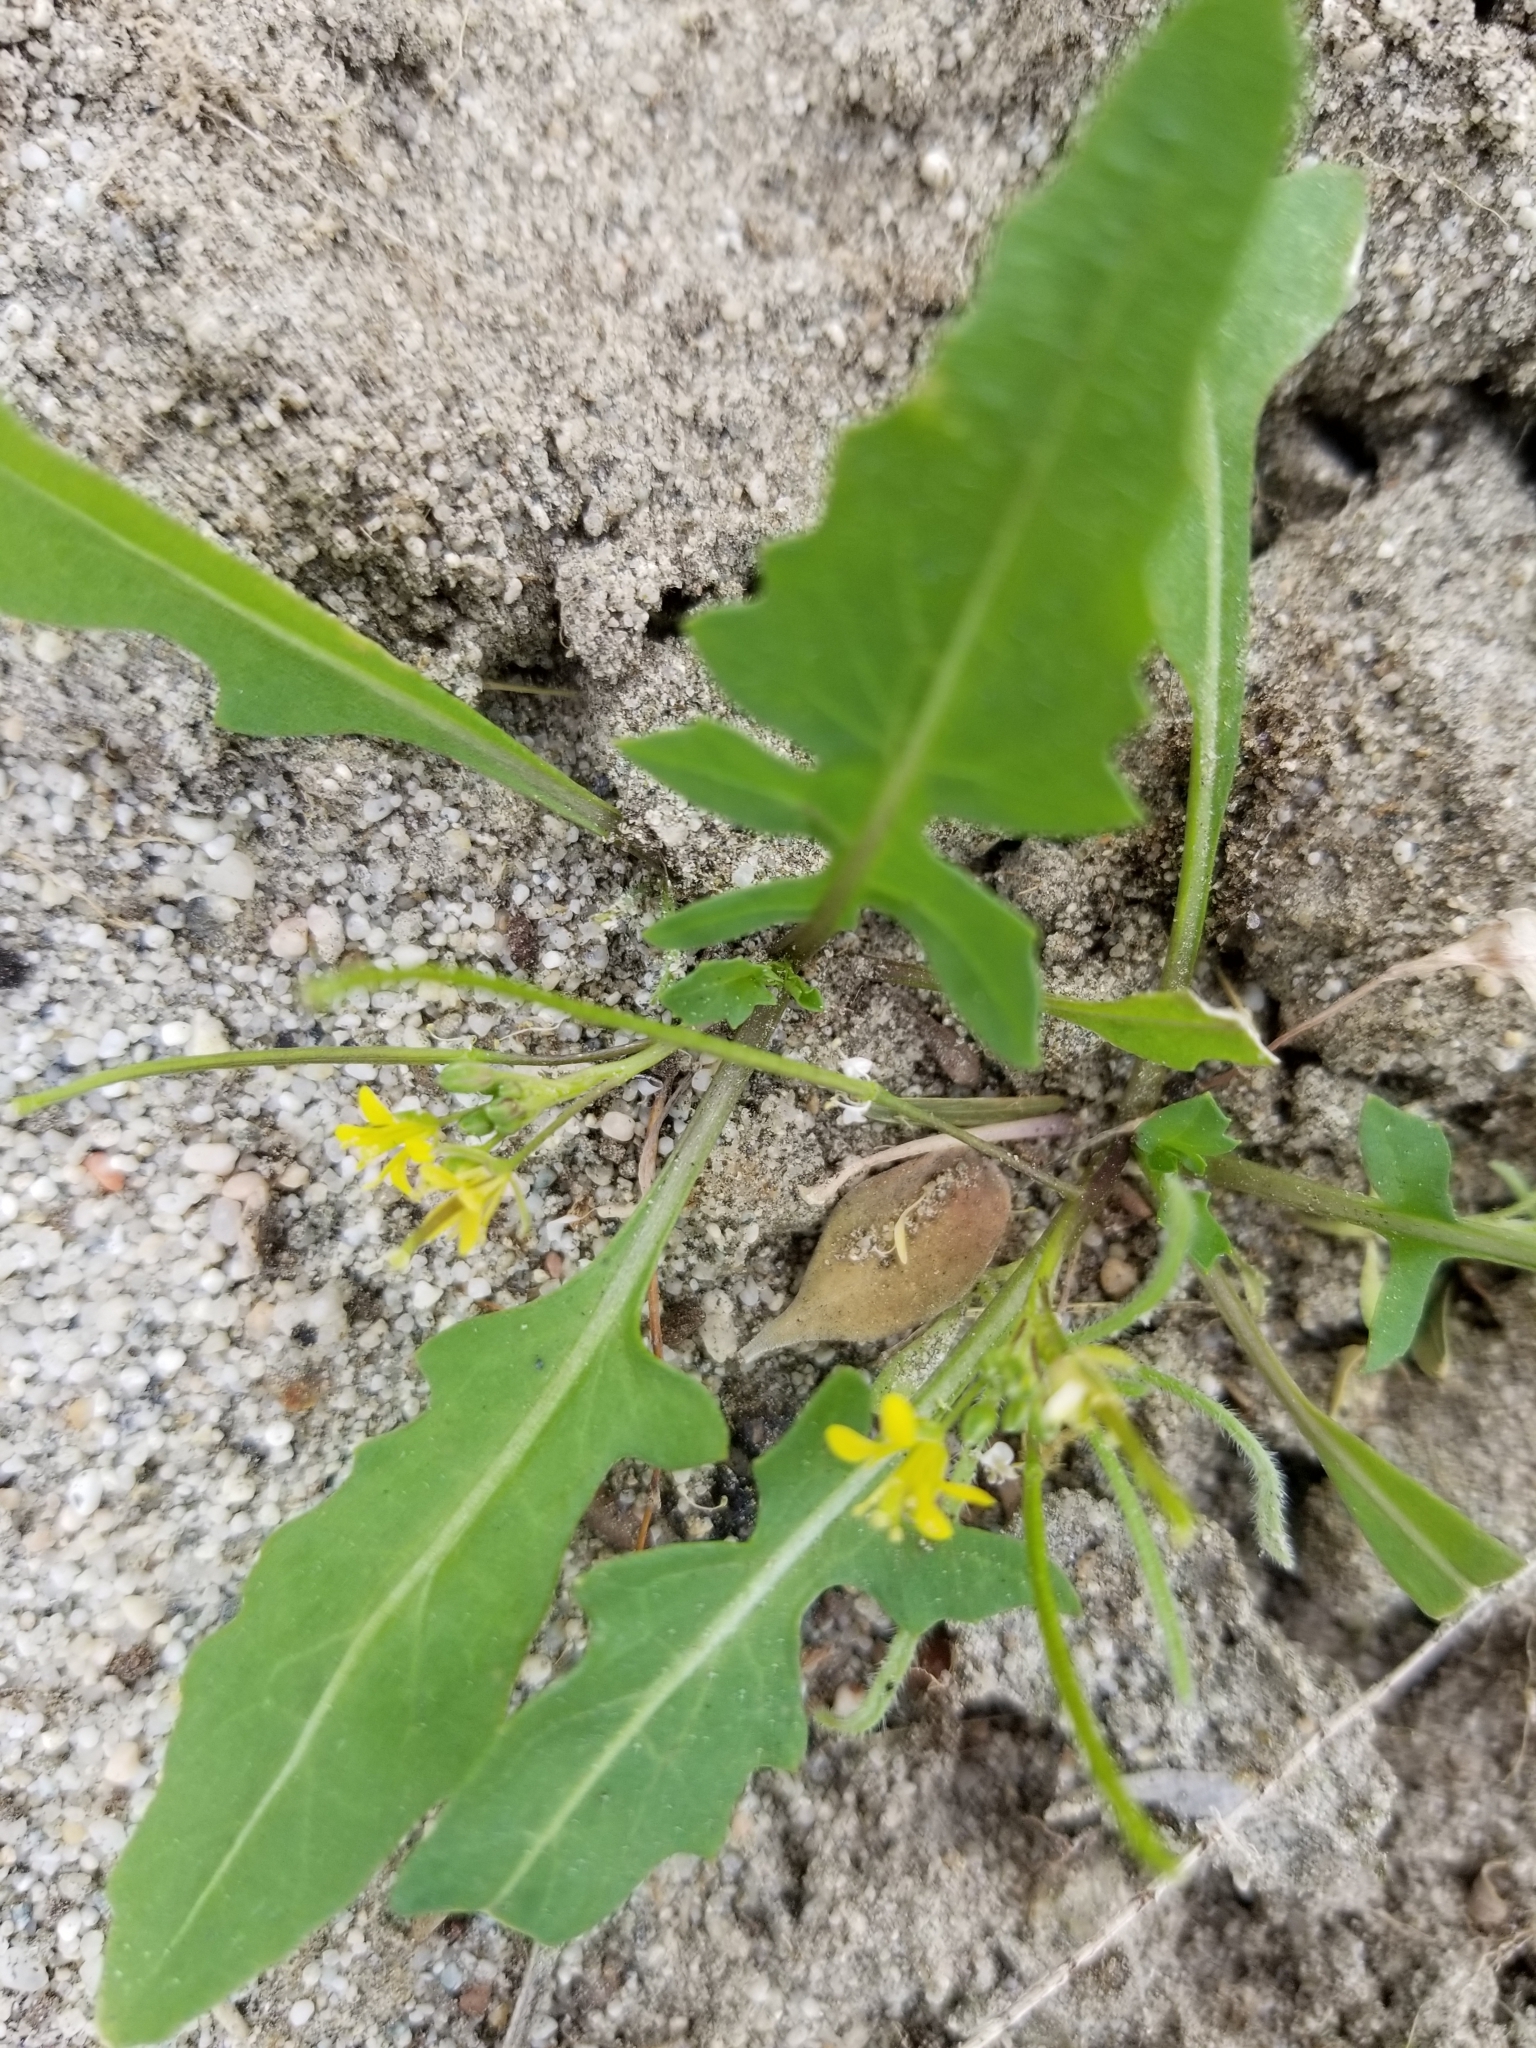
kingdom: Plantae
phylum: Tracheophyta
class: Magnoliopsida
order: Brassicales
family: Brassicaceae
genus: Sisymbrium
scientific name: Sisymbrium irio
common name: London rocket
